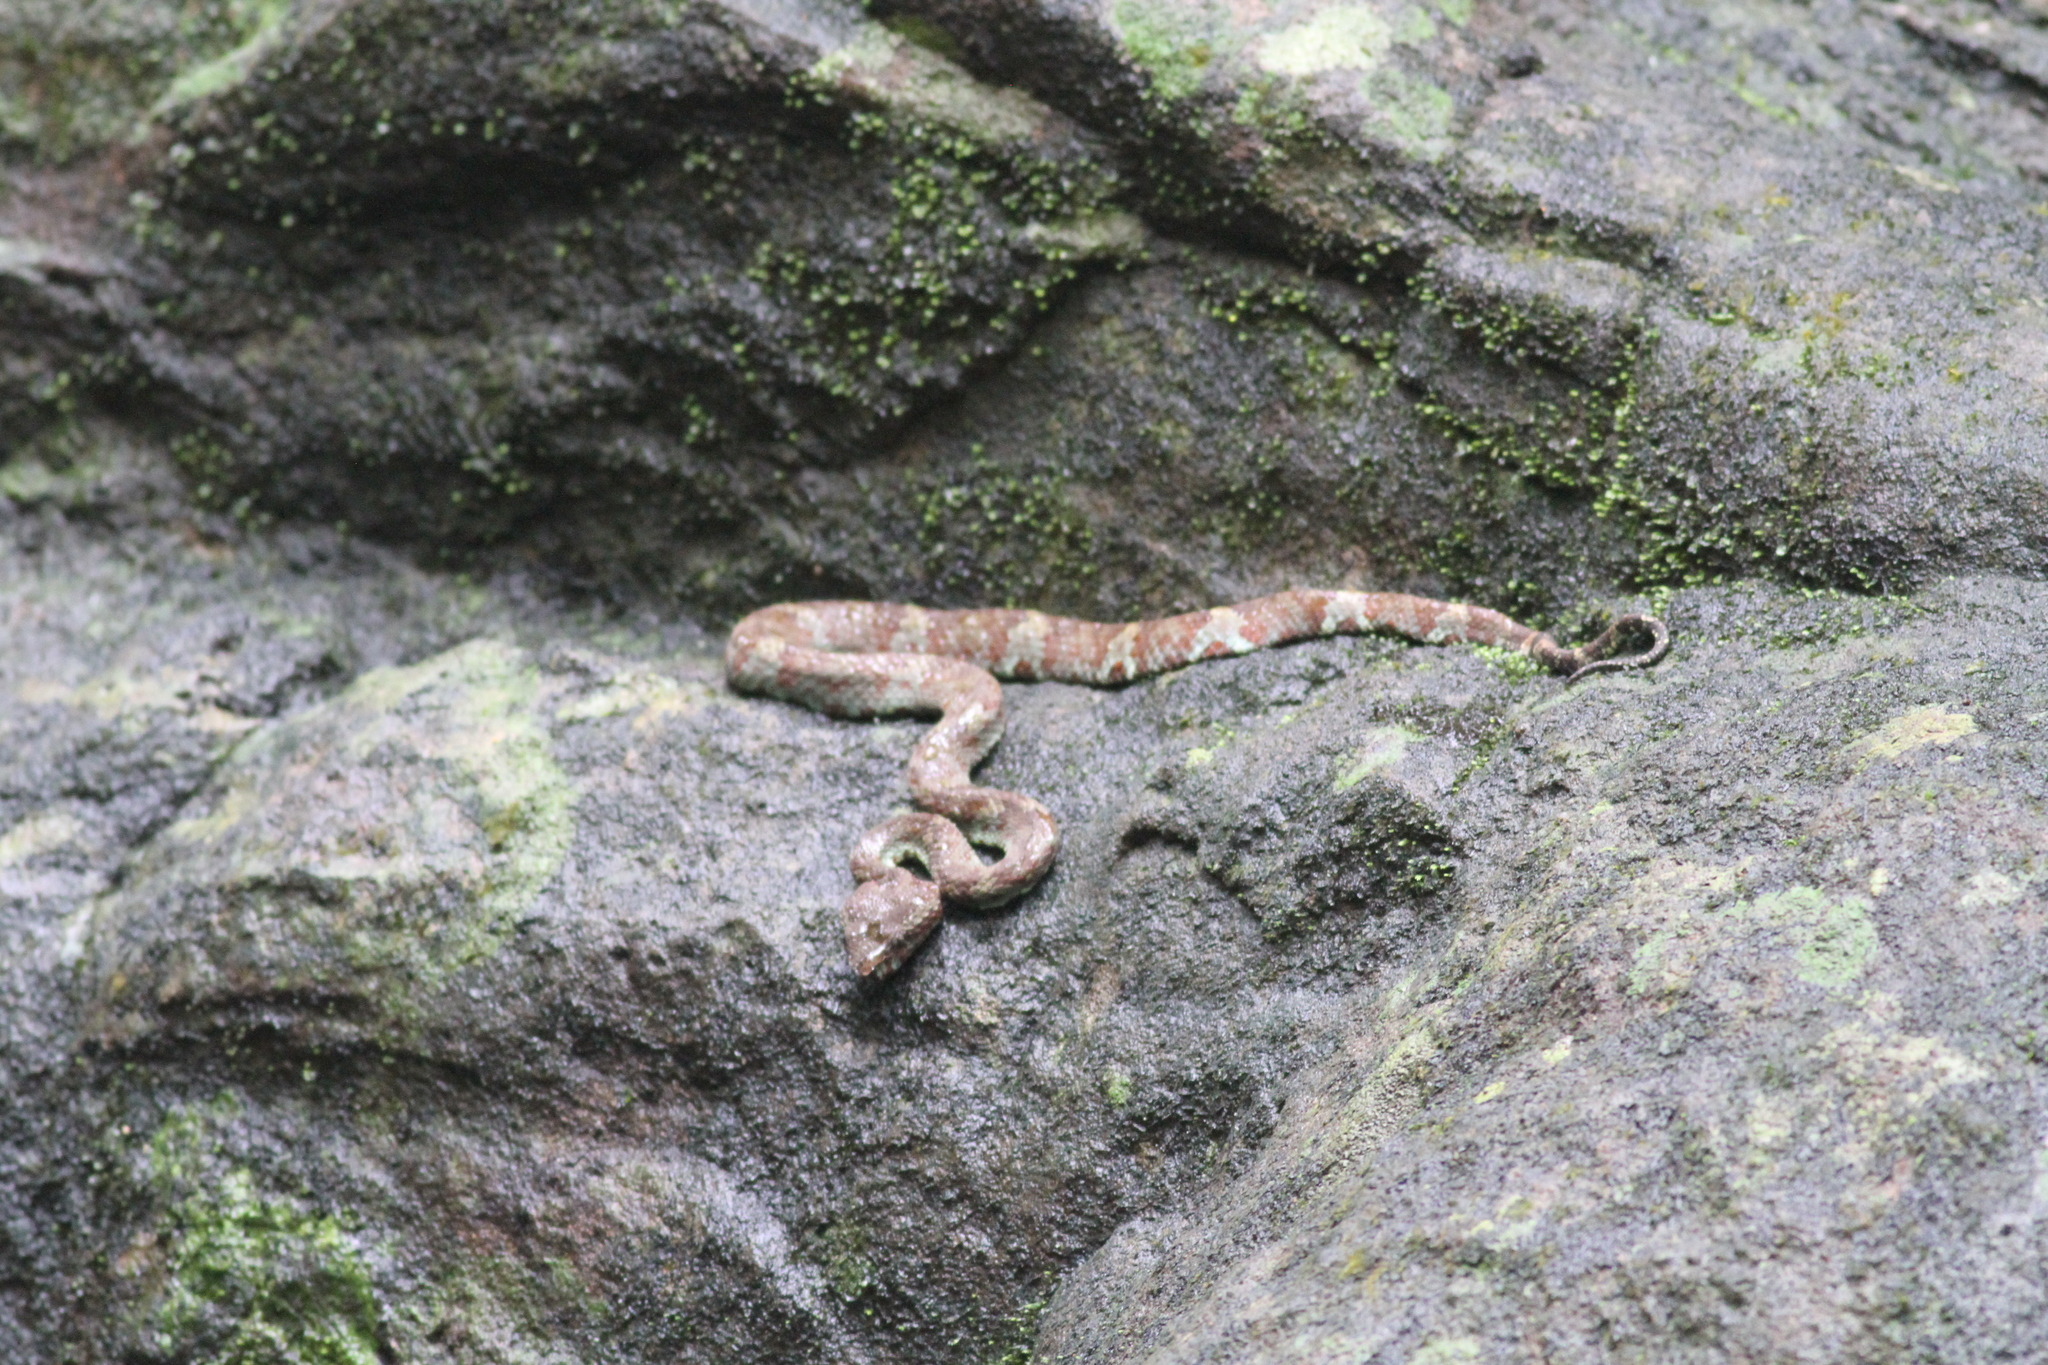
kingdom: Animalia
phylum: Chordata
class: Squamata
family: Viperidae
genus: Craspedocephalus
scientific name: Craspedocephalus malabaricus
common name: Malabarian pit viper
